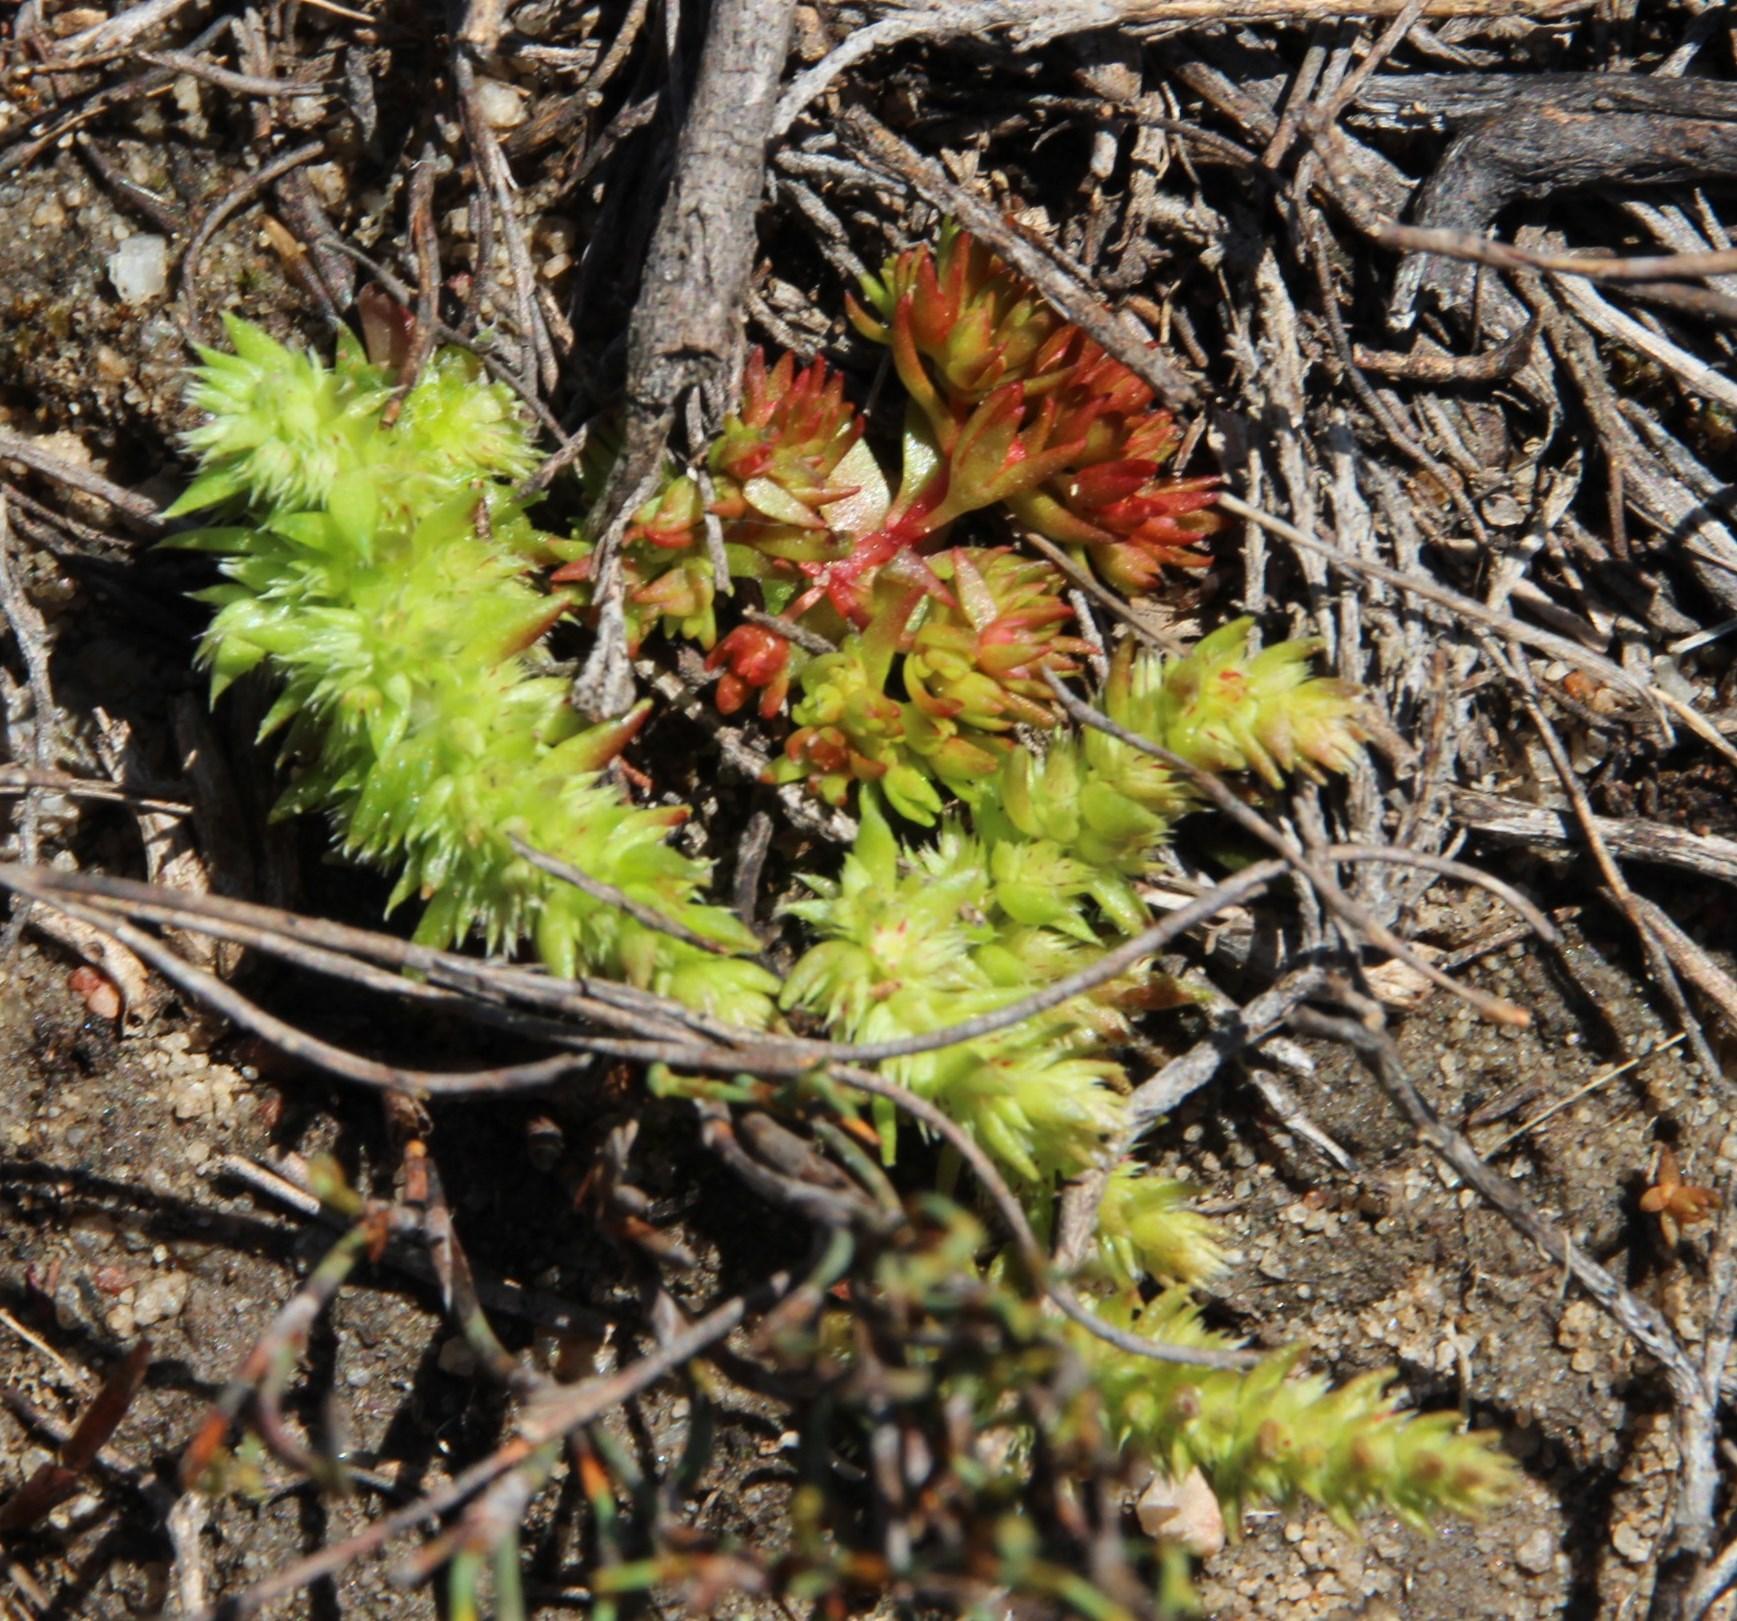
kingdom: Plantae
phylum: Tracheophyta
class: Magnoliopsida
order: Saxifragales
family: Crassulaceae
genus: Crassula
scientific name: Crassula lanceolata
